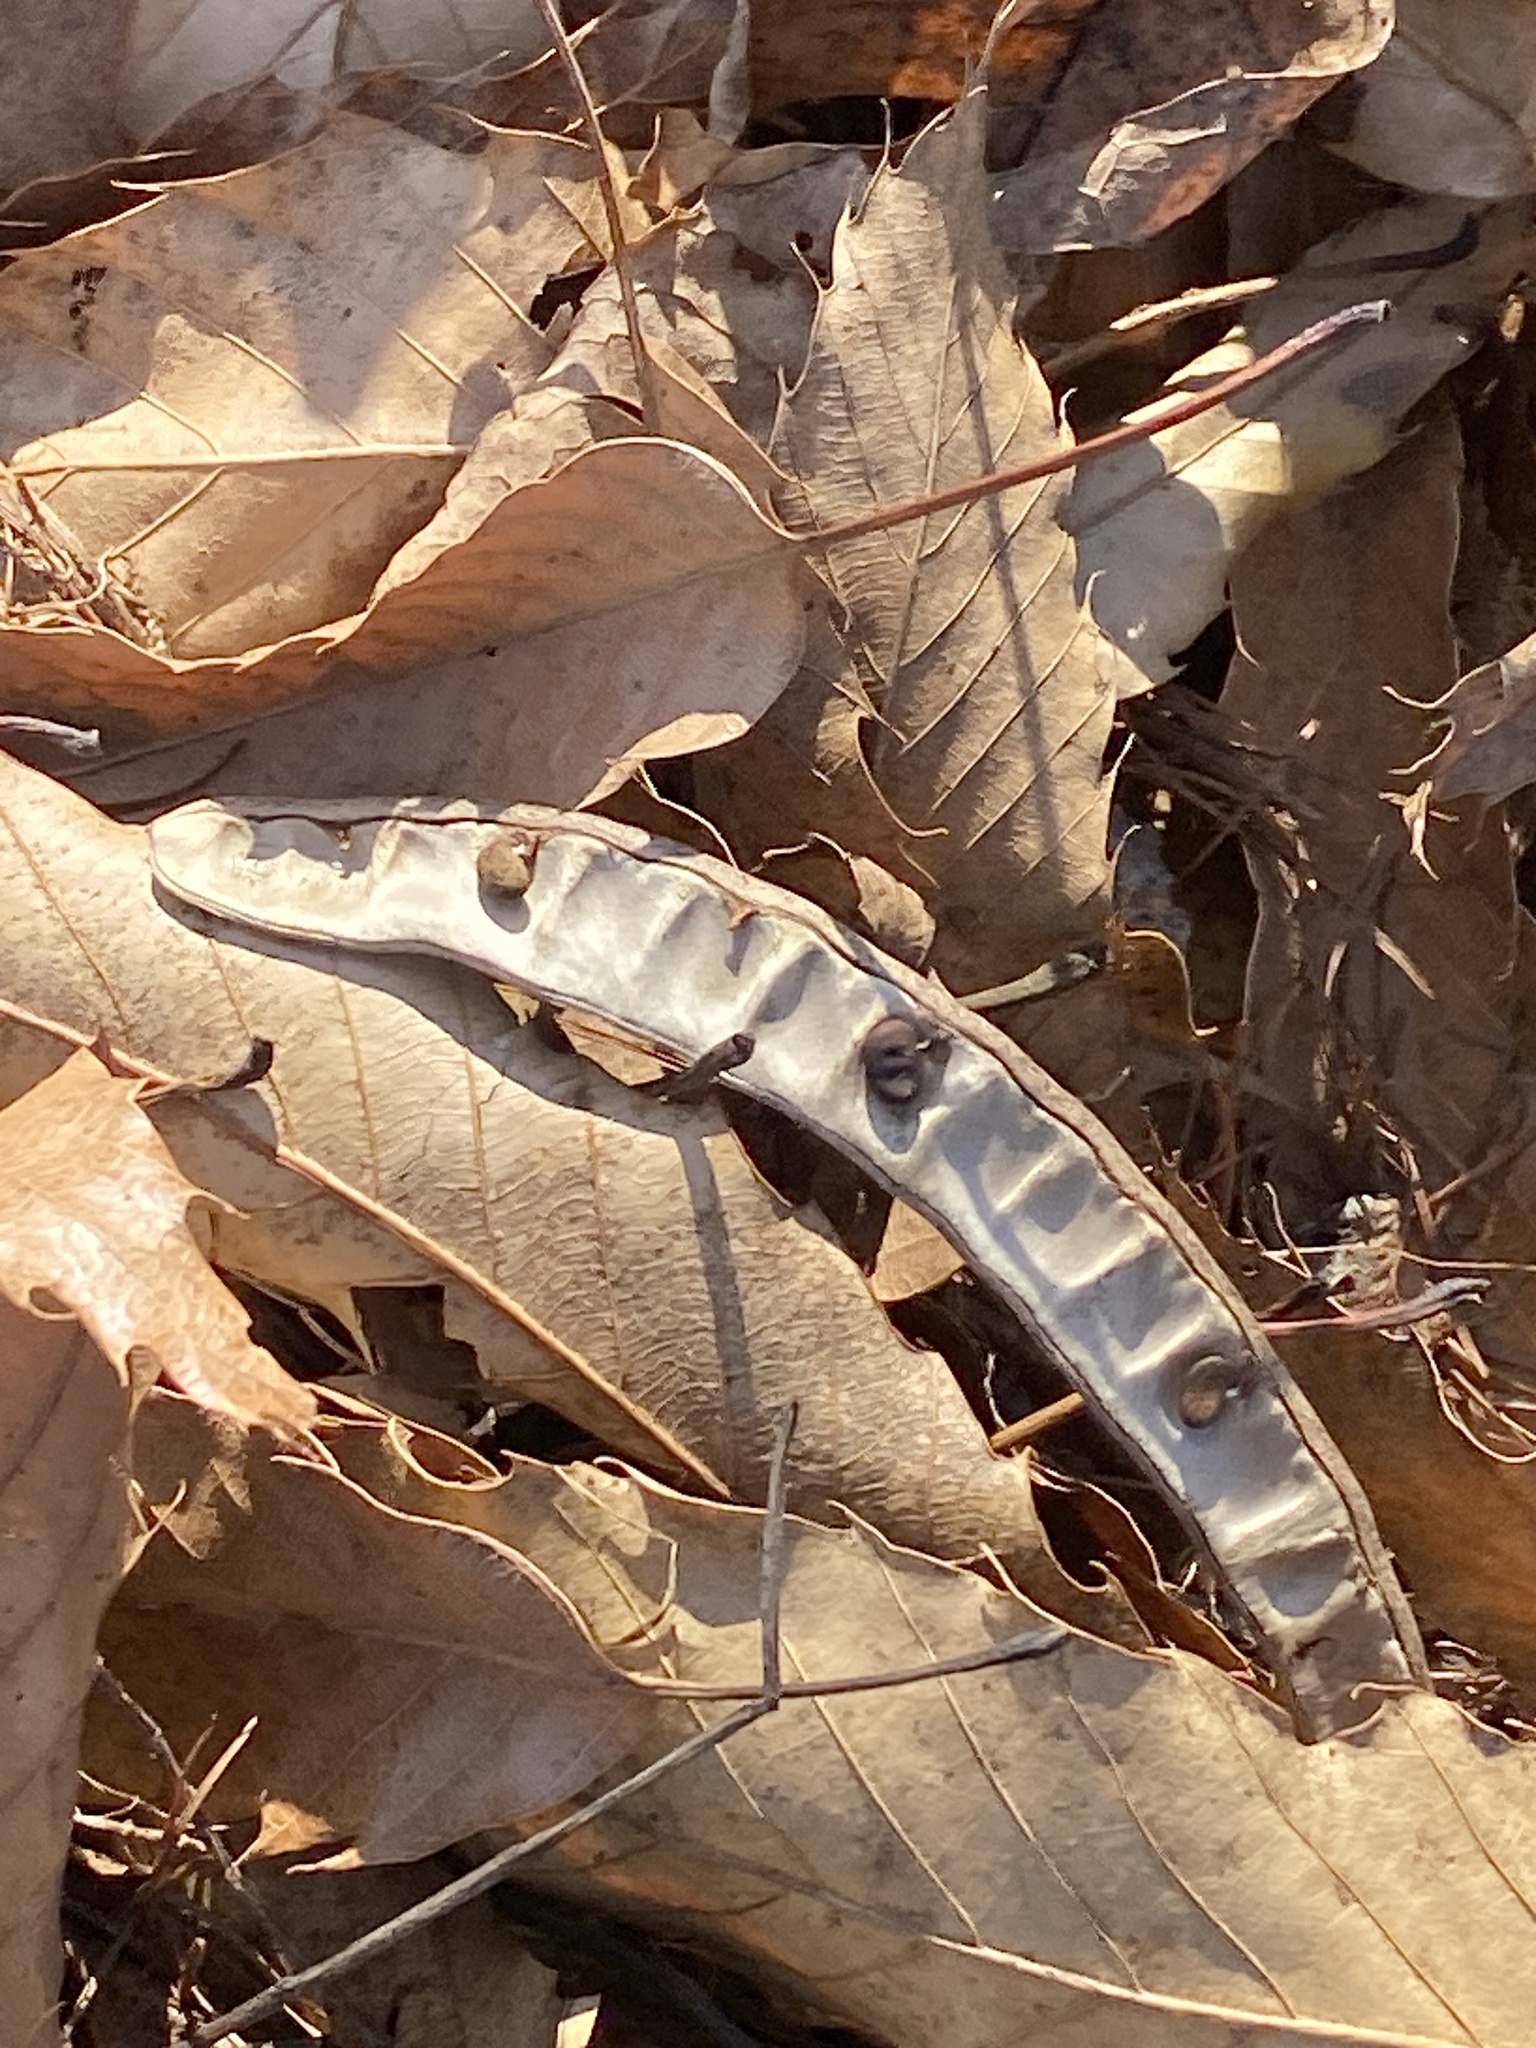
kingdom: Plantae
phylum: Tracheophyta
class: Magnoliopsida
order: Fabales
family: Fabaceae
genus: Robinia
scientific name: Robinia pseudoacacia
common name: Black locust
